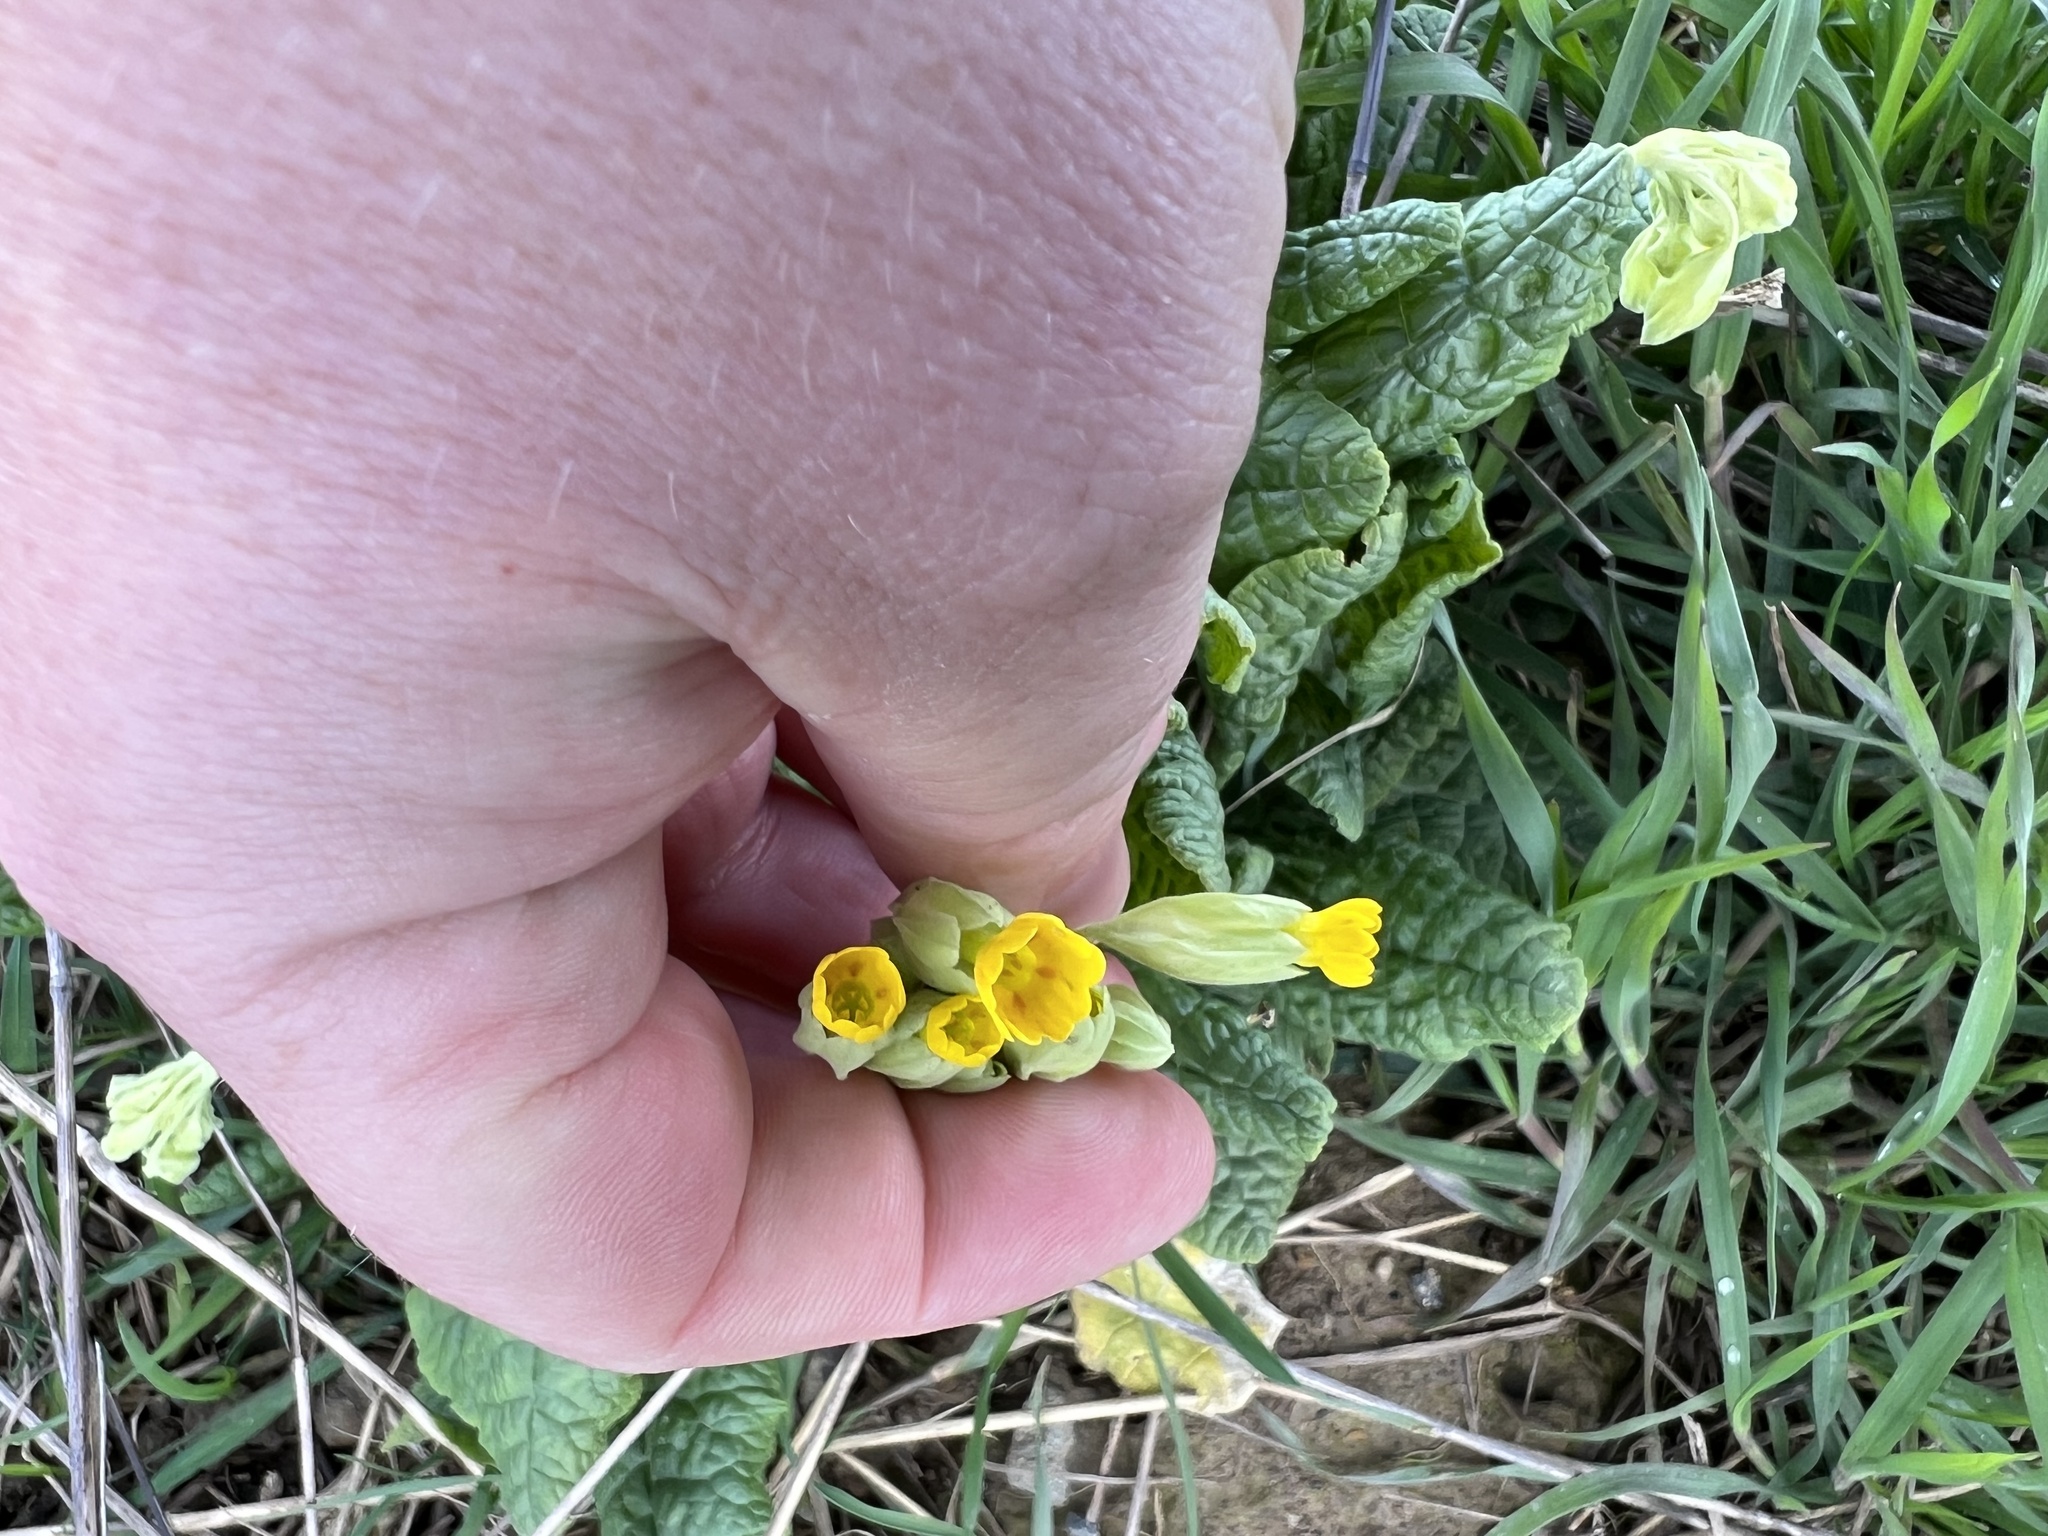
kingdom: Plantae
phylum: Tracheophyta
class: Magnoliopsida
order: Ericales
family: Primulaceae
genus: Primula
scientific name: Primula veris
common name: Cowslip
